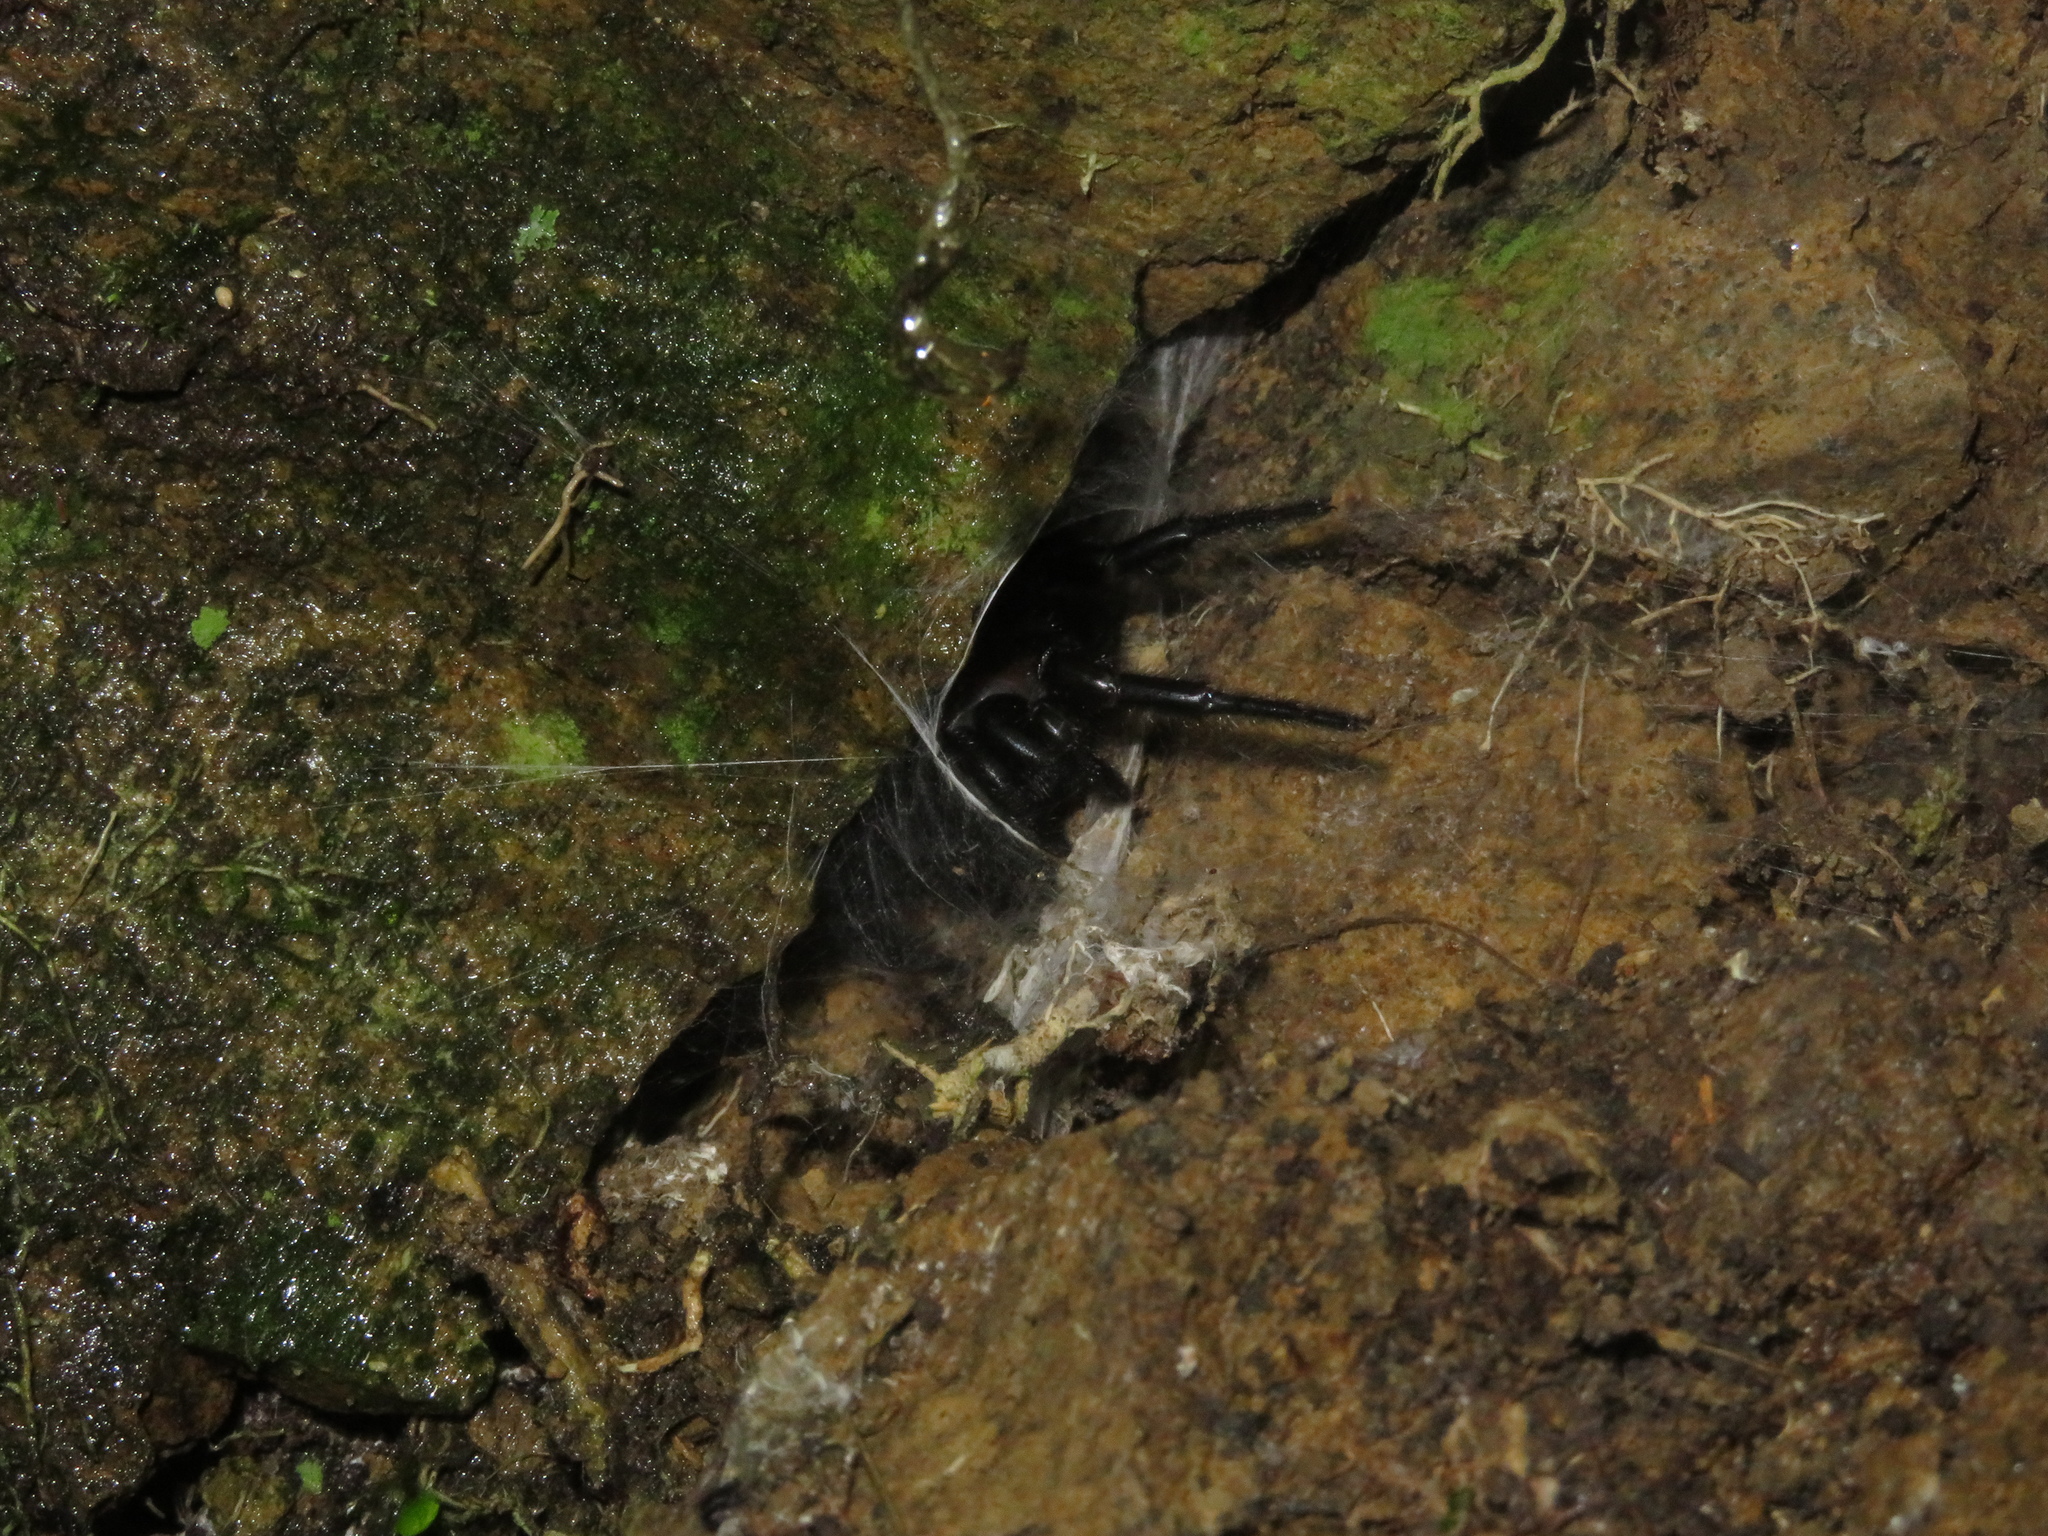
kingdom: Animalia
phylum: Arthropoda
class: Arachnida
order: Araneae
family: Porrhothelidae
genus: Porrhothele
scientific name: Porrhothele antipodiana
